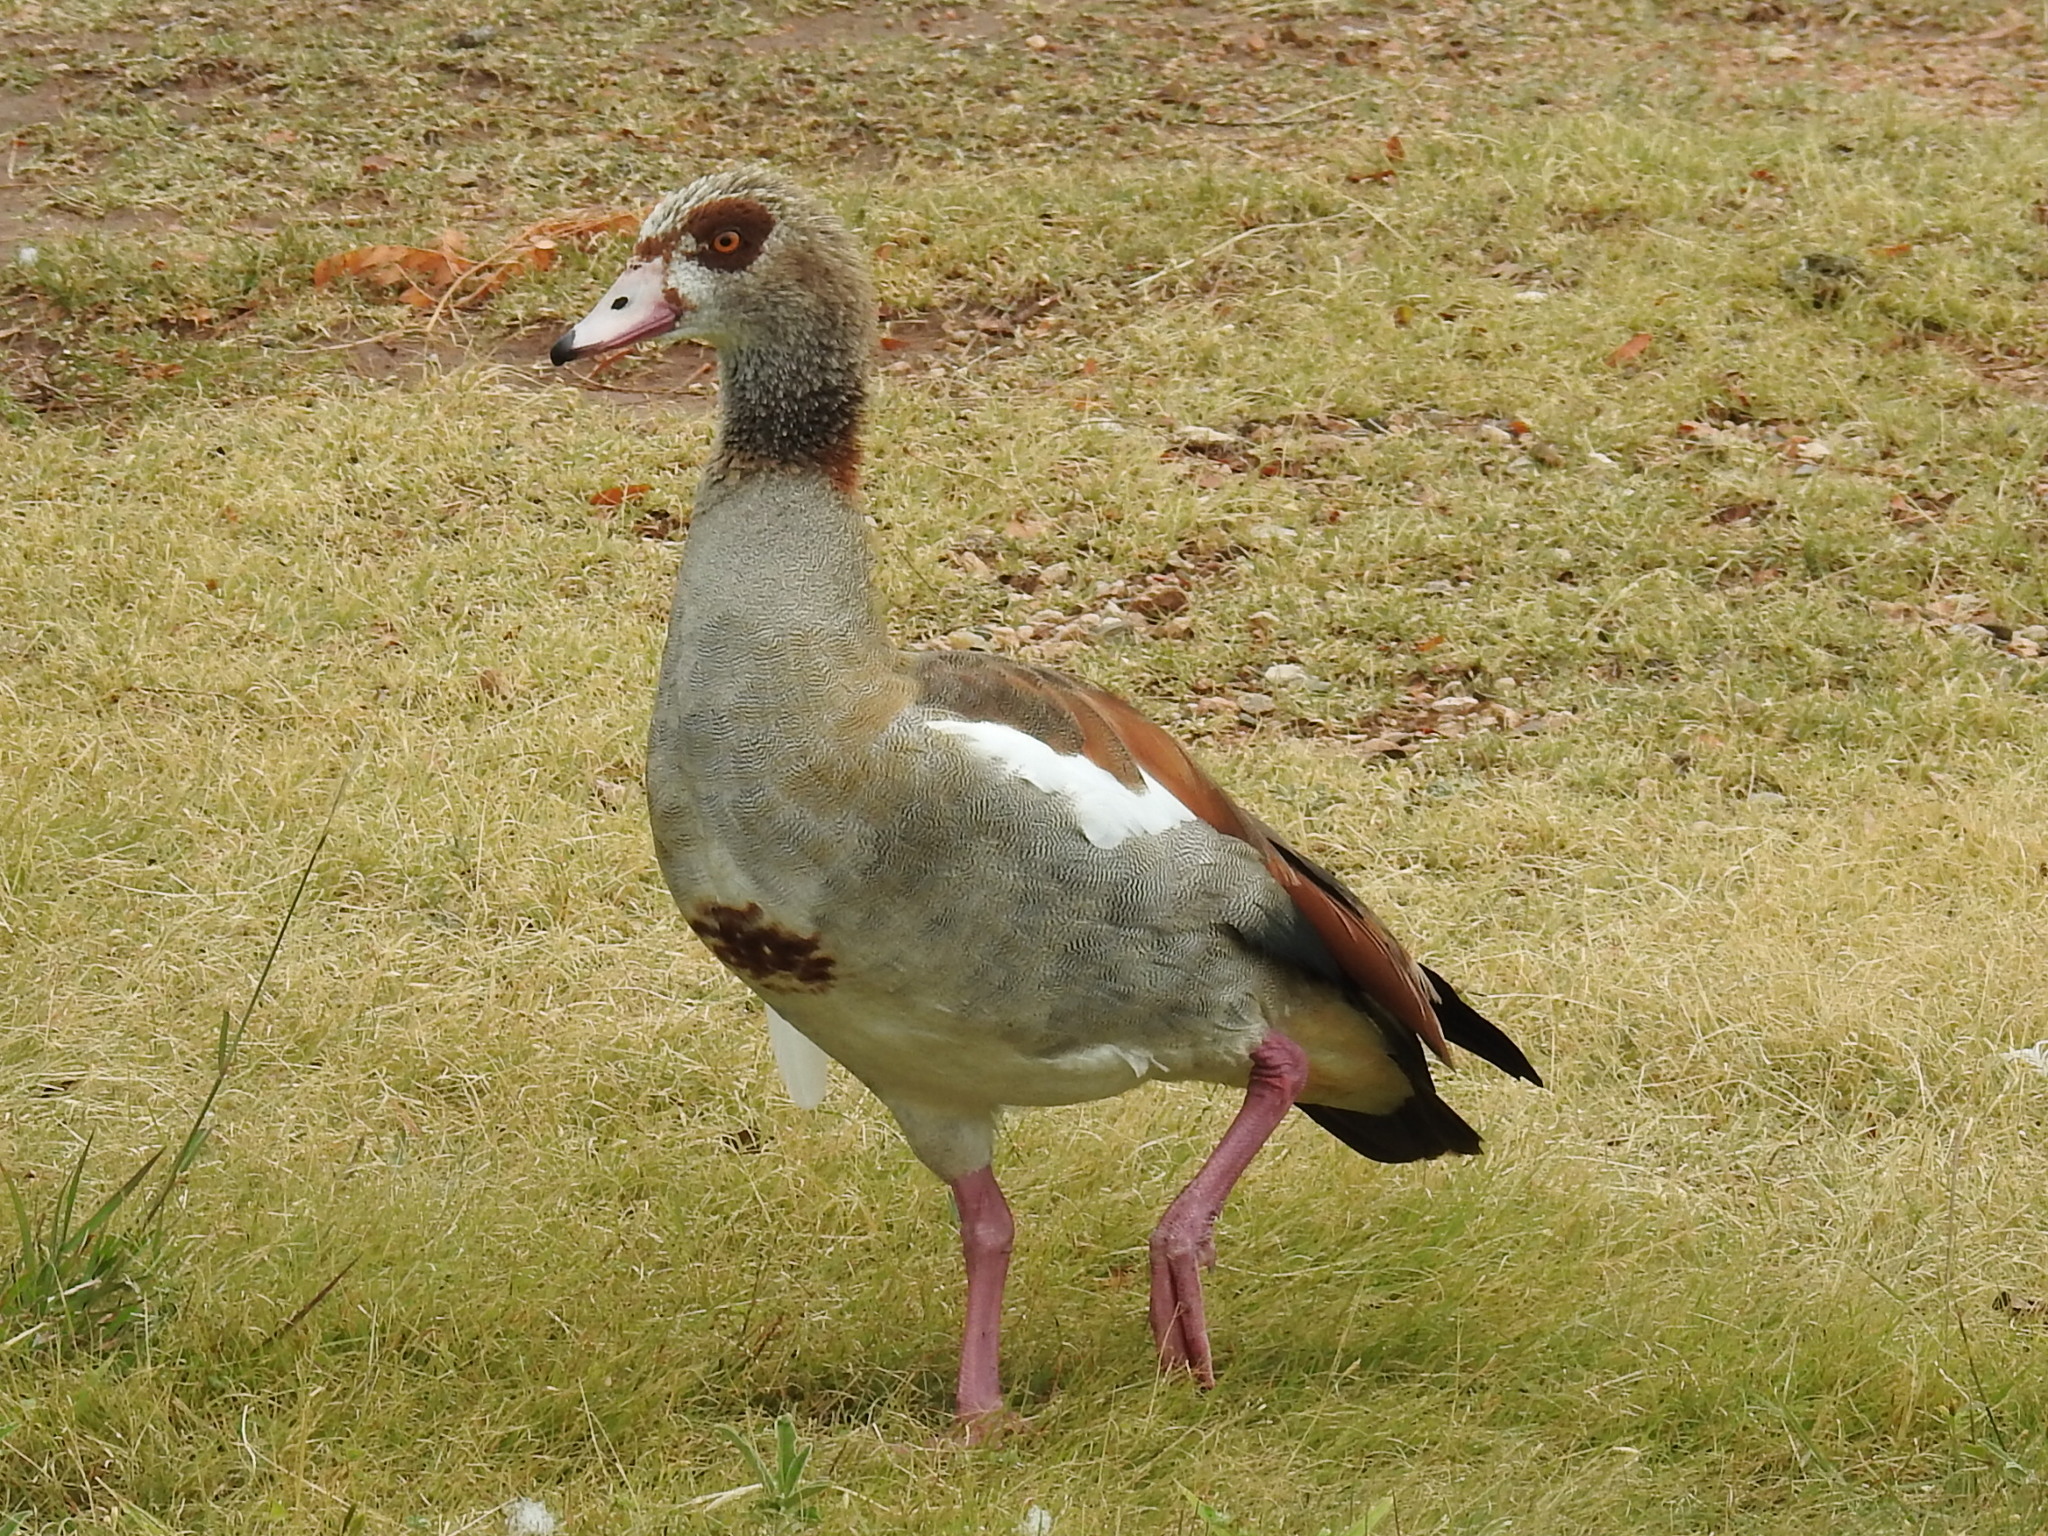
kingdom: Animalia
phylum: Chordata
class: Aves
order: Anseriformes
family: Anatidae
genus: Alopochen
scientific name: Alopochen aegyptiaca
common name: Egyptian goose
